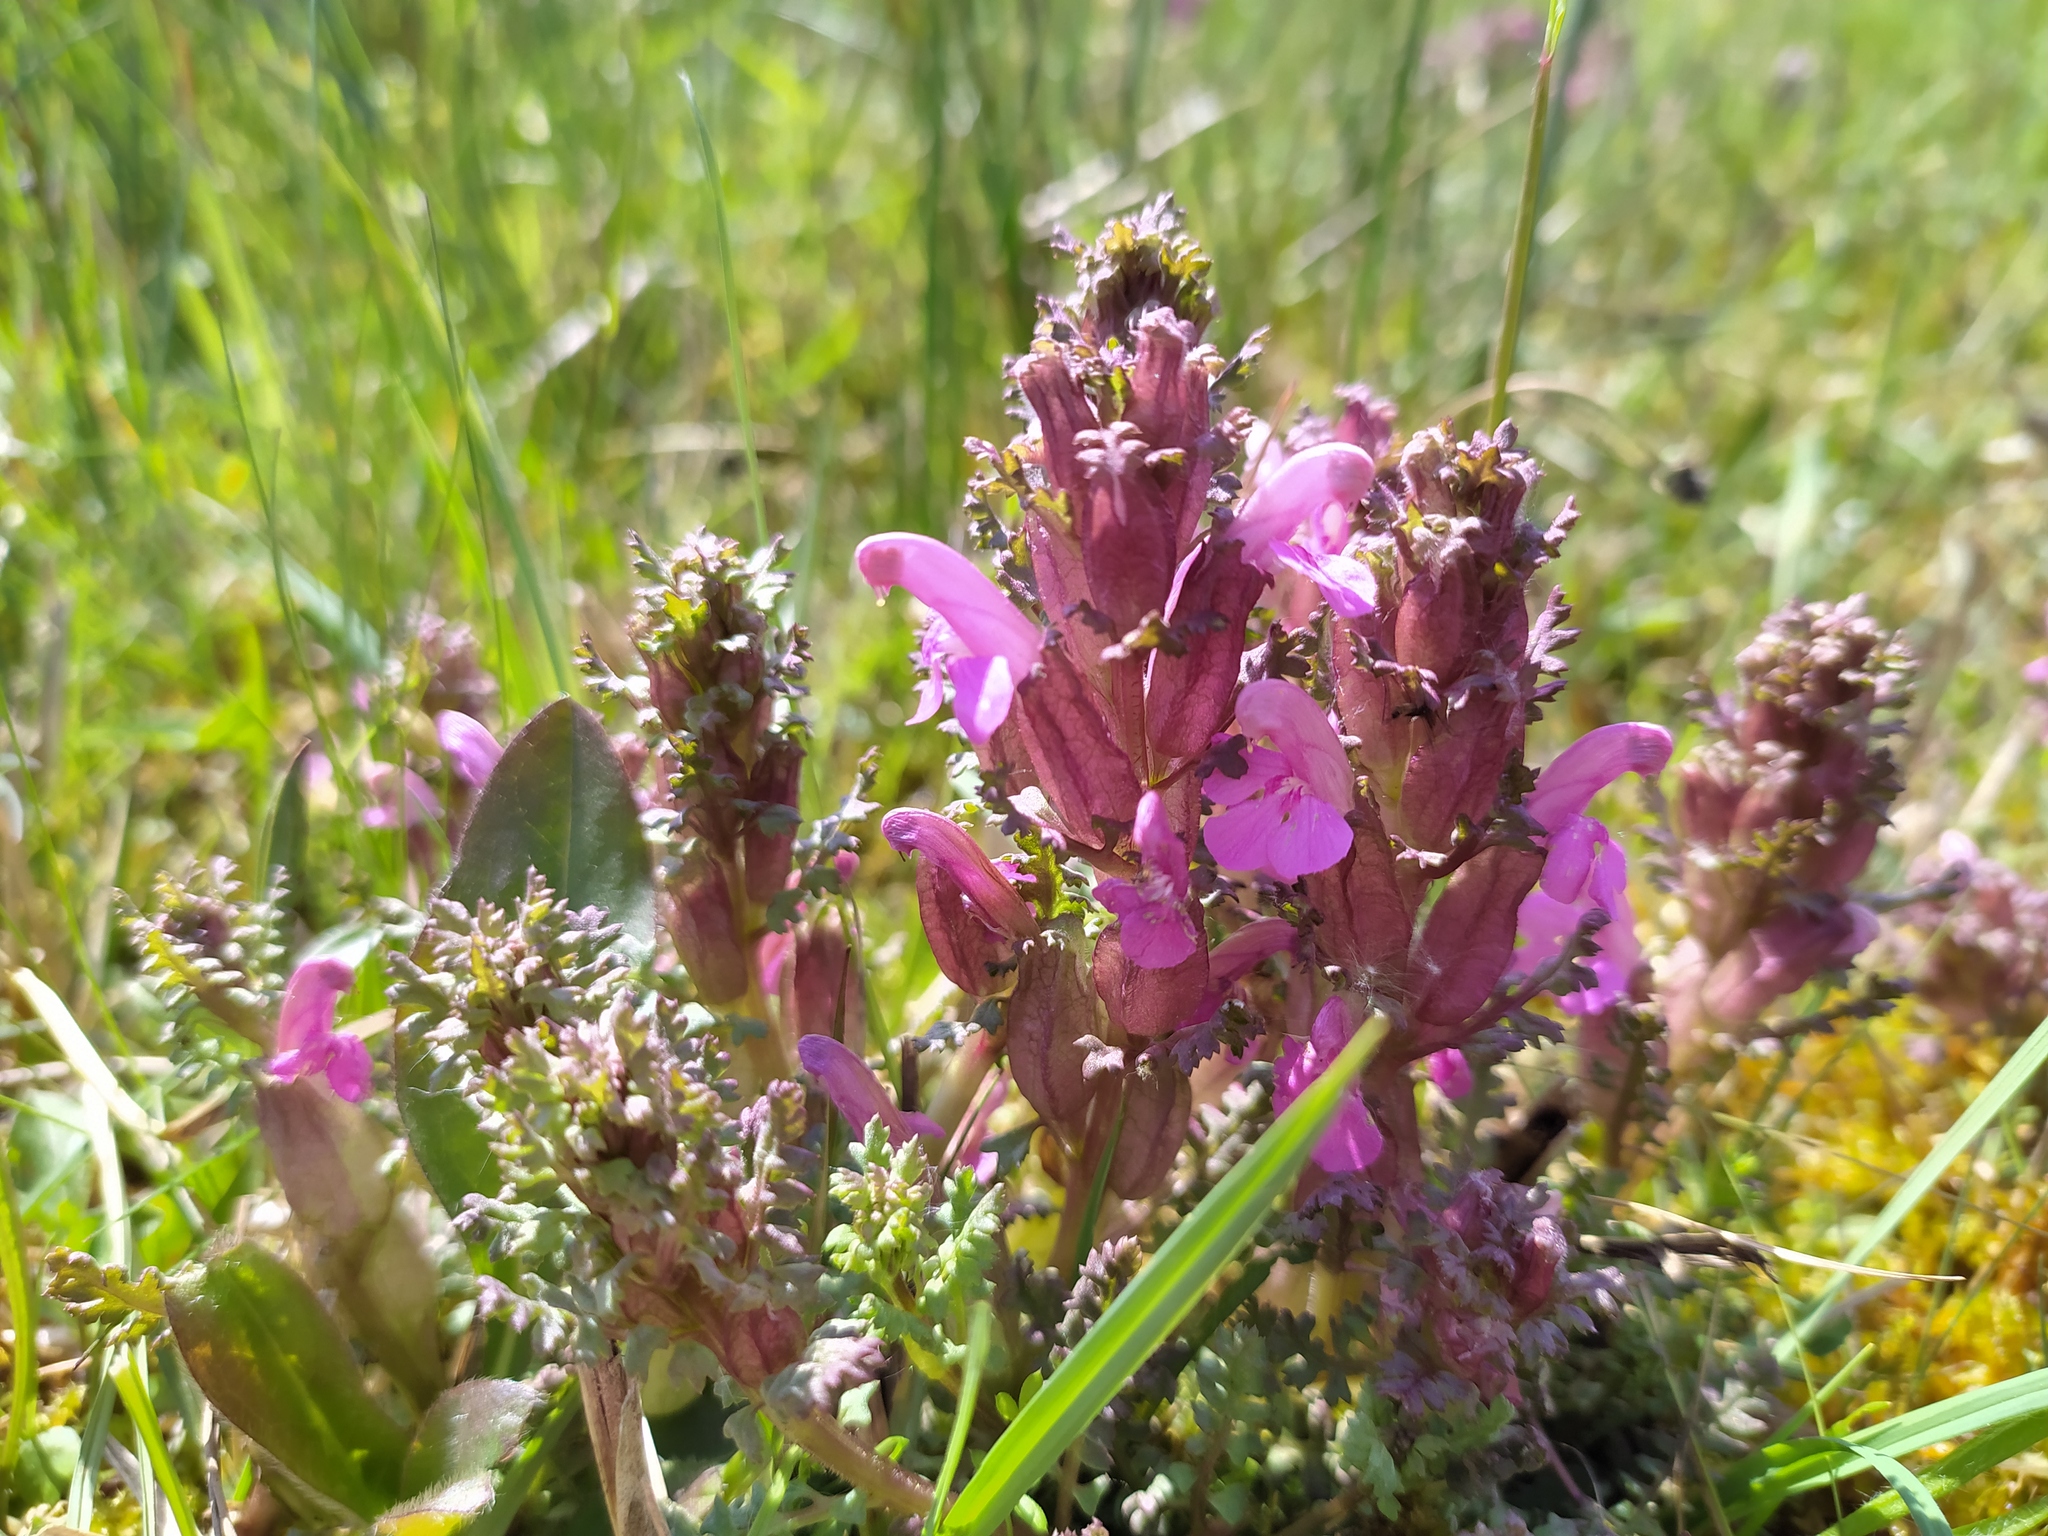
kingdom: Plantae
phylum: Tracheophyta
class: Magnoliopsida
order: Lamiales
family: Orobanchaceae
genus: Pedicularis
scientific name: Pedicularis sylvatica
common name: Lousewort
